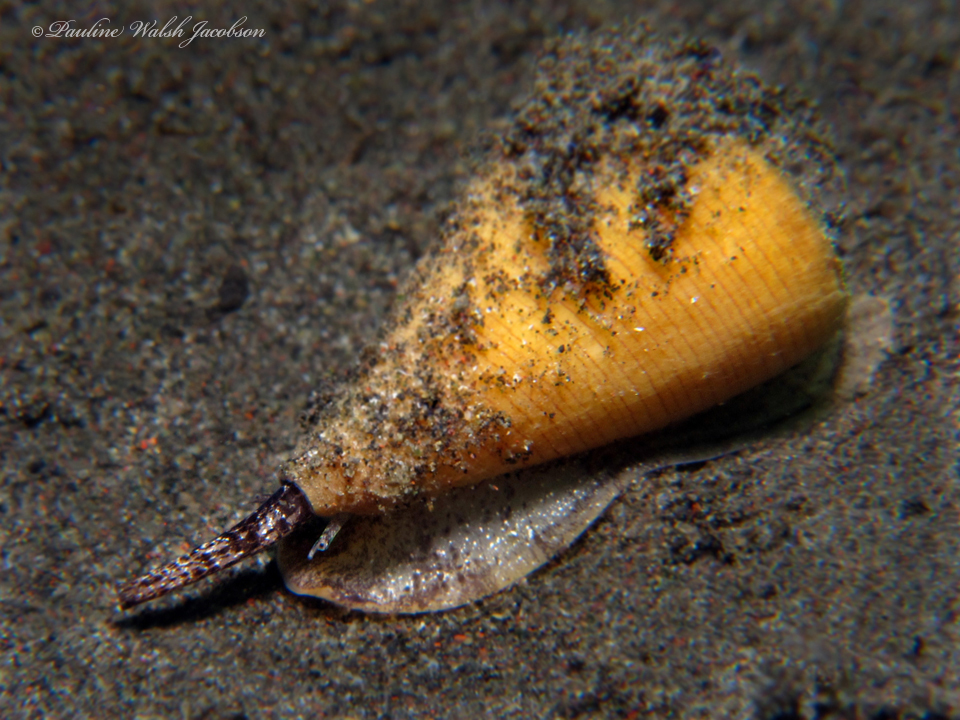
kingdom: Animalia
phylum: Mollusca
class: Gastropoda
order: Neogastropoda
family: Conidae
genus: Conus
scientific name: Conus quercinus
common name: Oak cone
